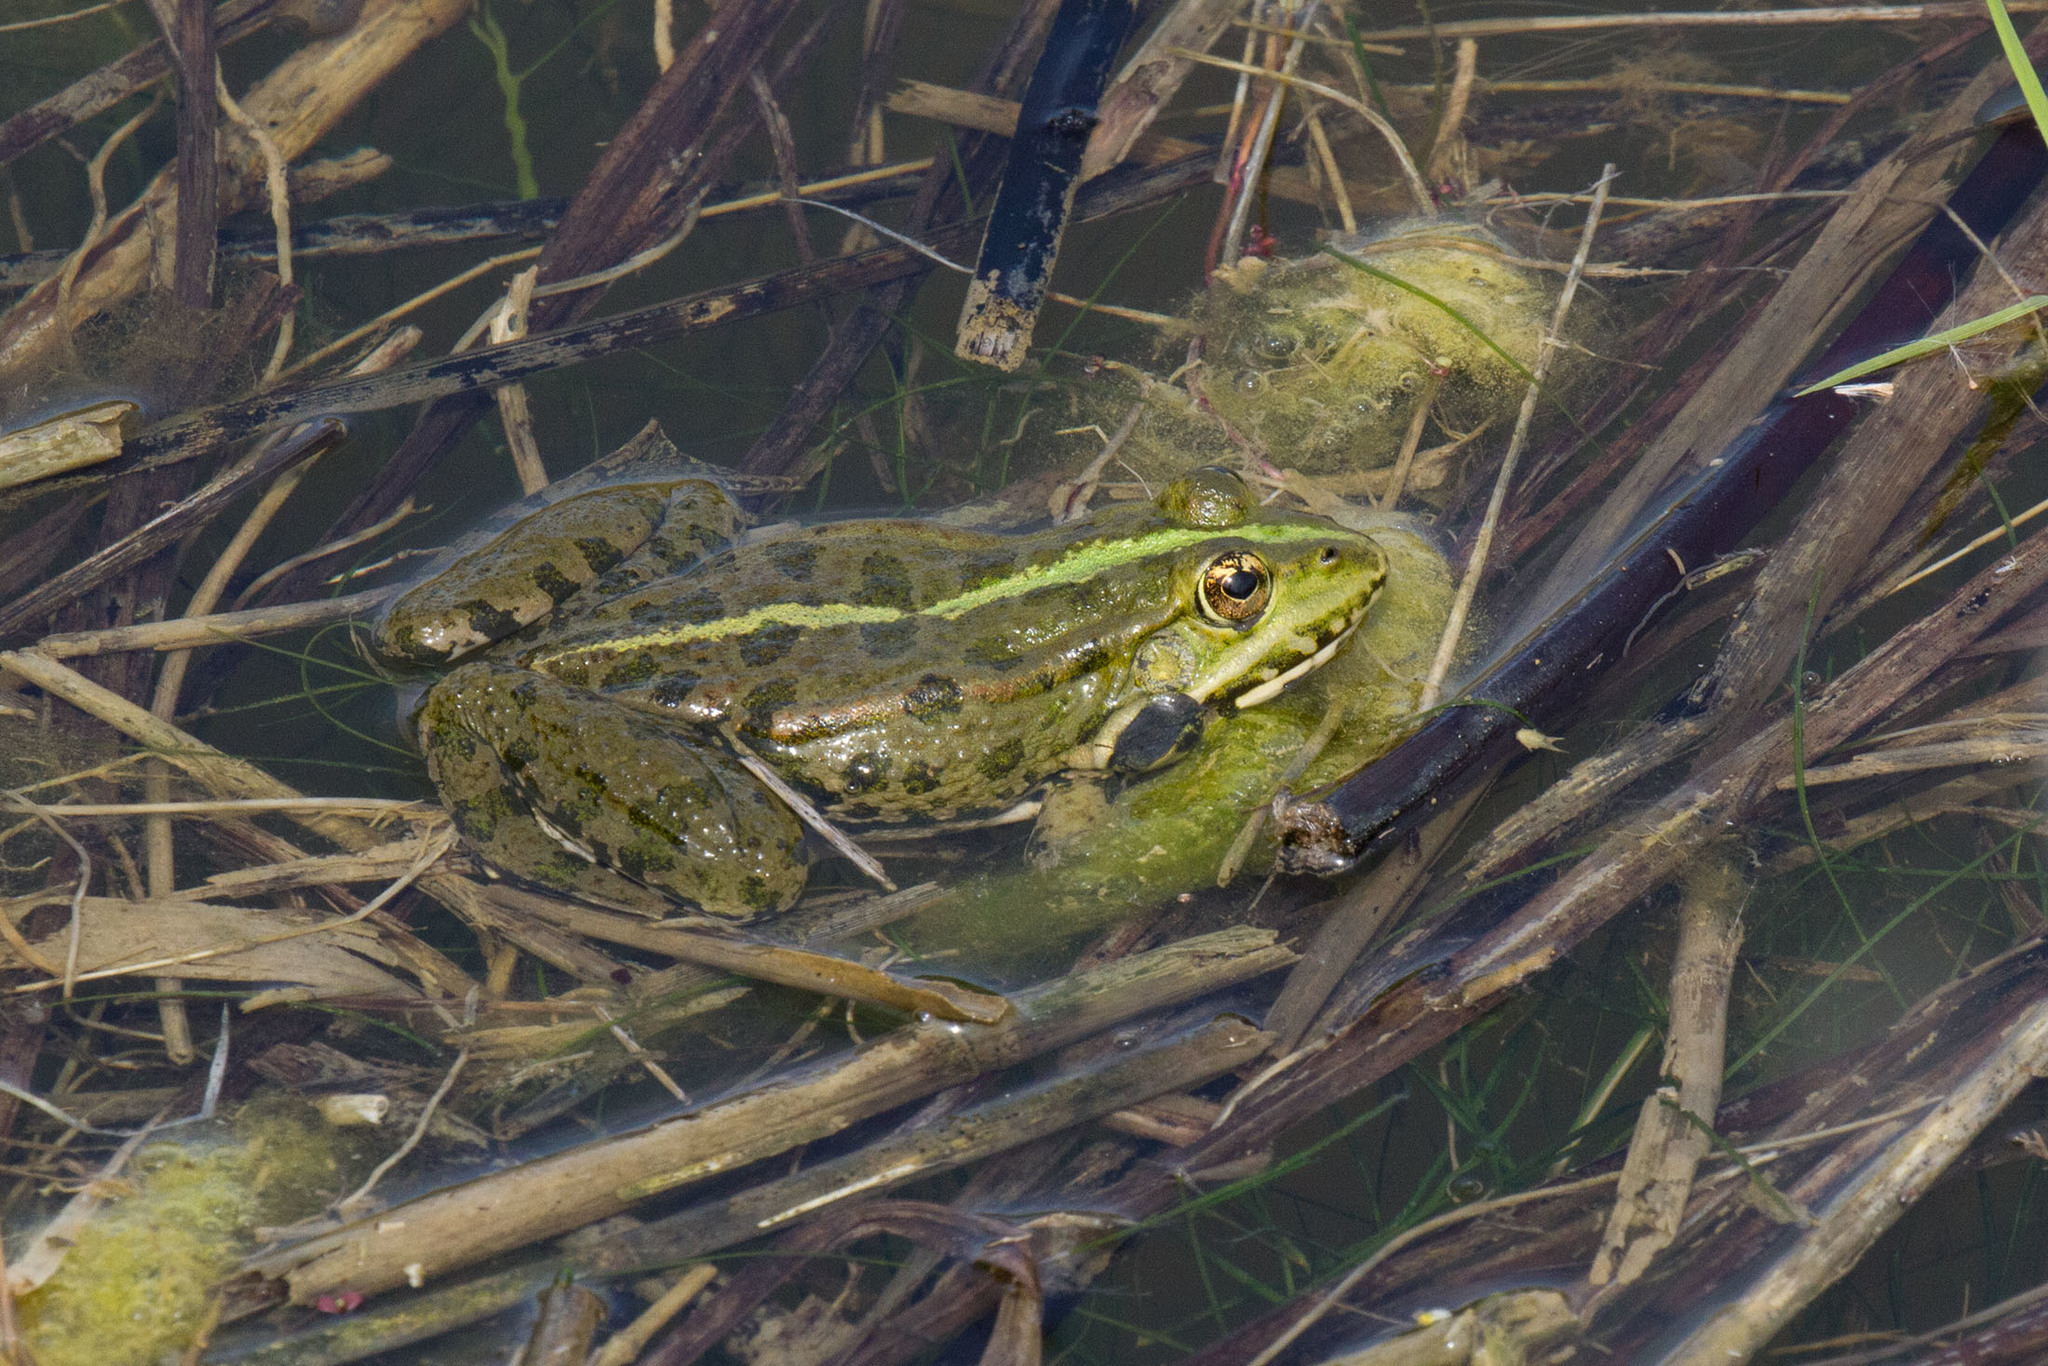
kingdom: Animalia
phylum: Chordata
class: Amphibia
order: Anura
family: Ranidae
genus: Pelophylax
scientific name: Pelophylax ridibundus
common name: Marsh frog
